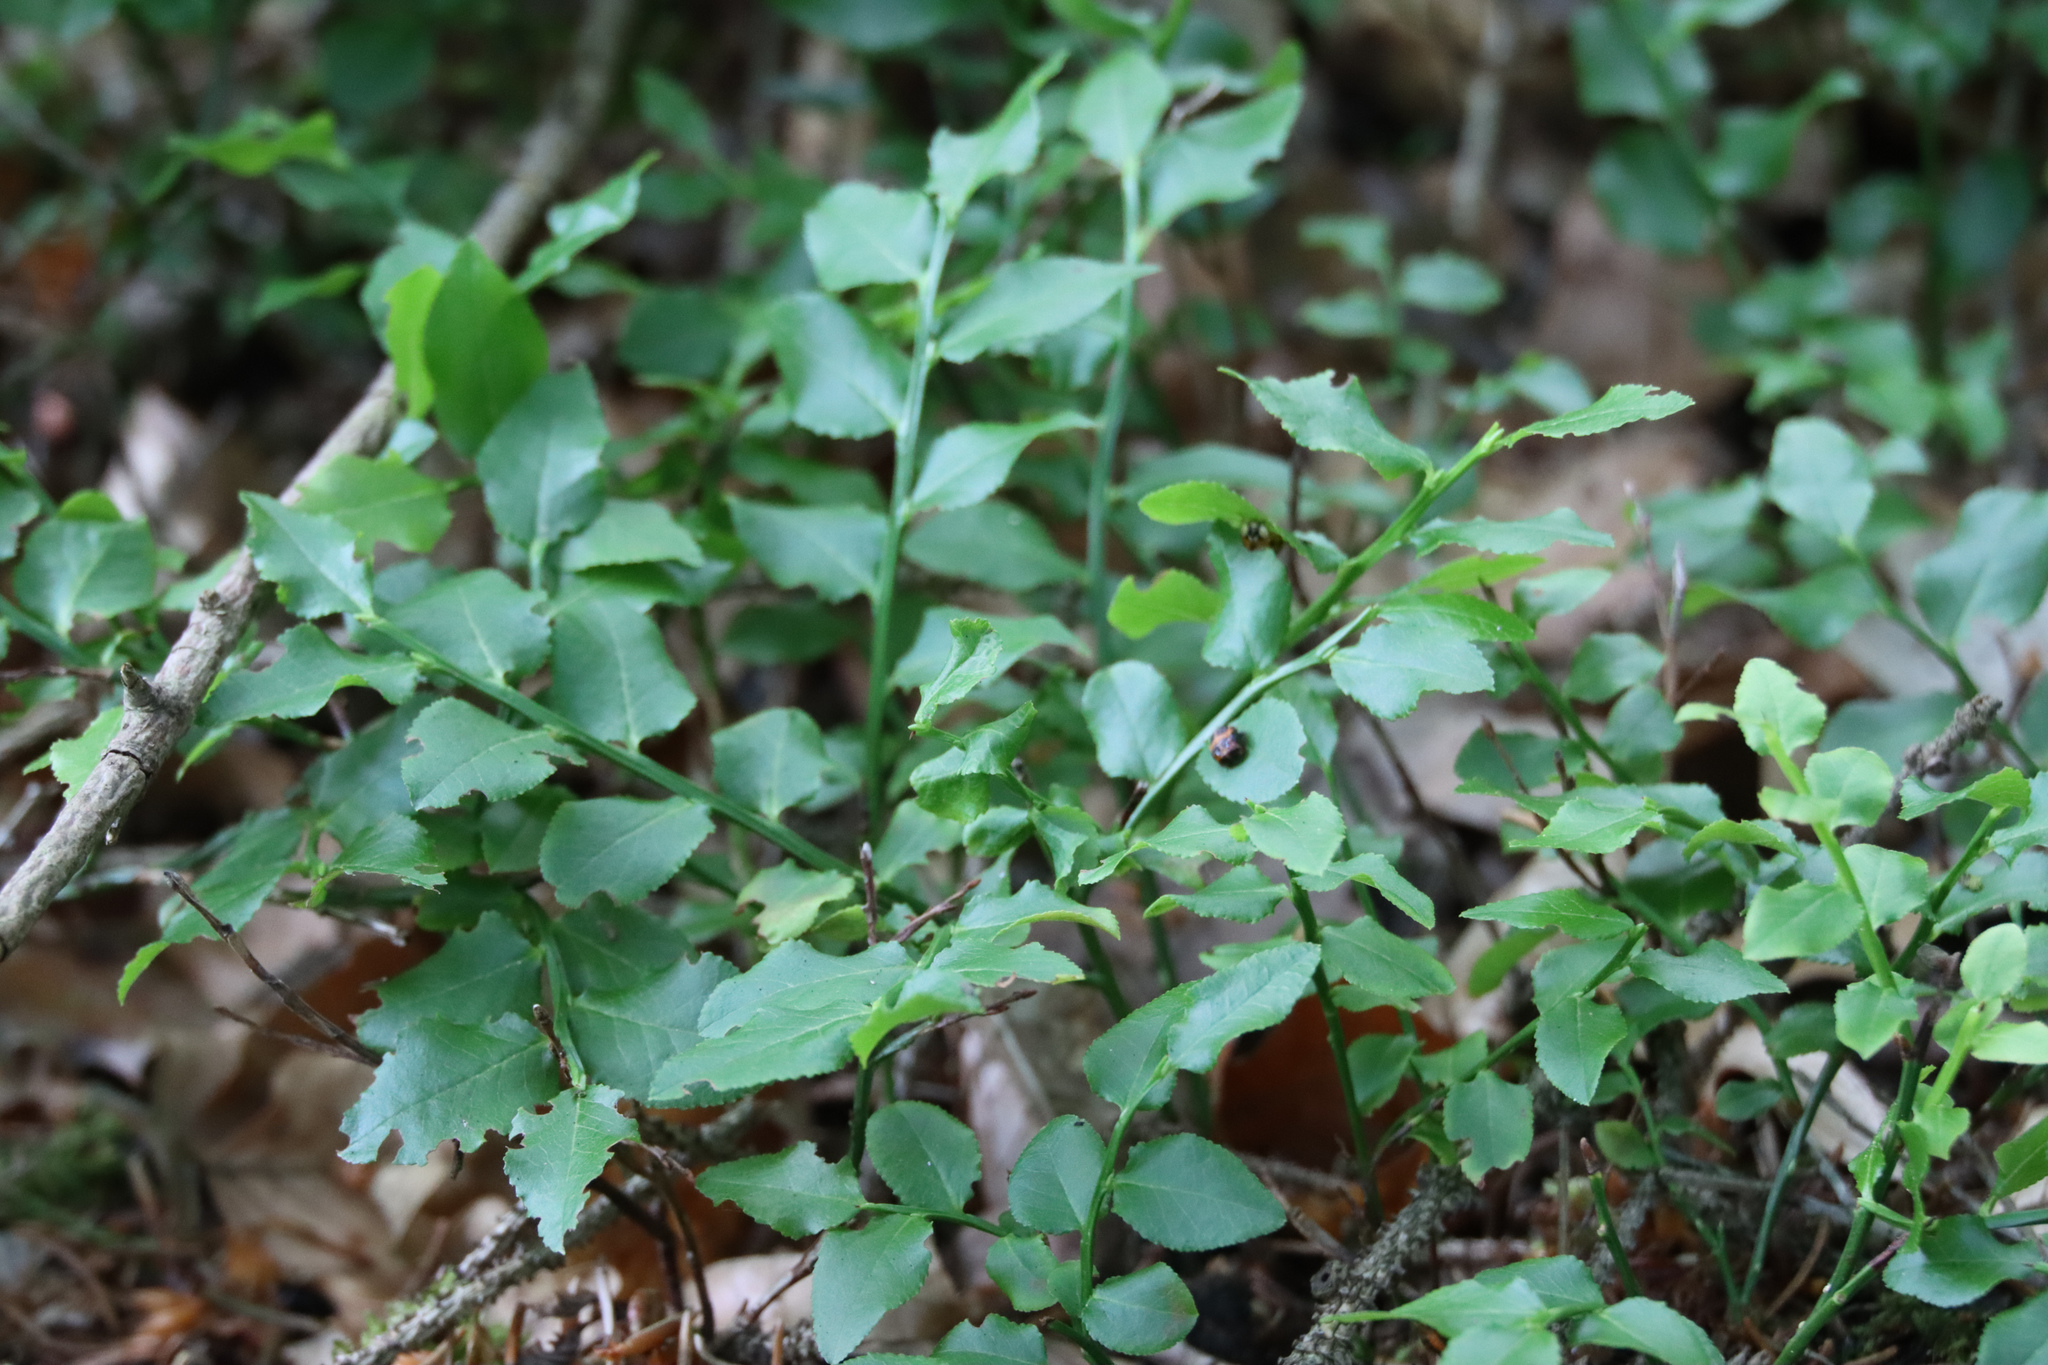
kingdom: Plantae
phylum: Tracheophyta
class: Magnoliopsida
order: Ericales
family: Ericaceae
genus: Vaccinium
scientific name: Vaccinium myrtillus
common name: Bilberry
